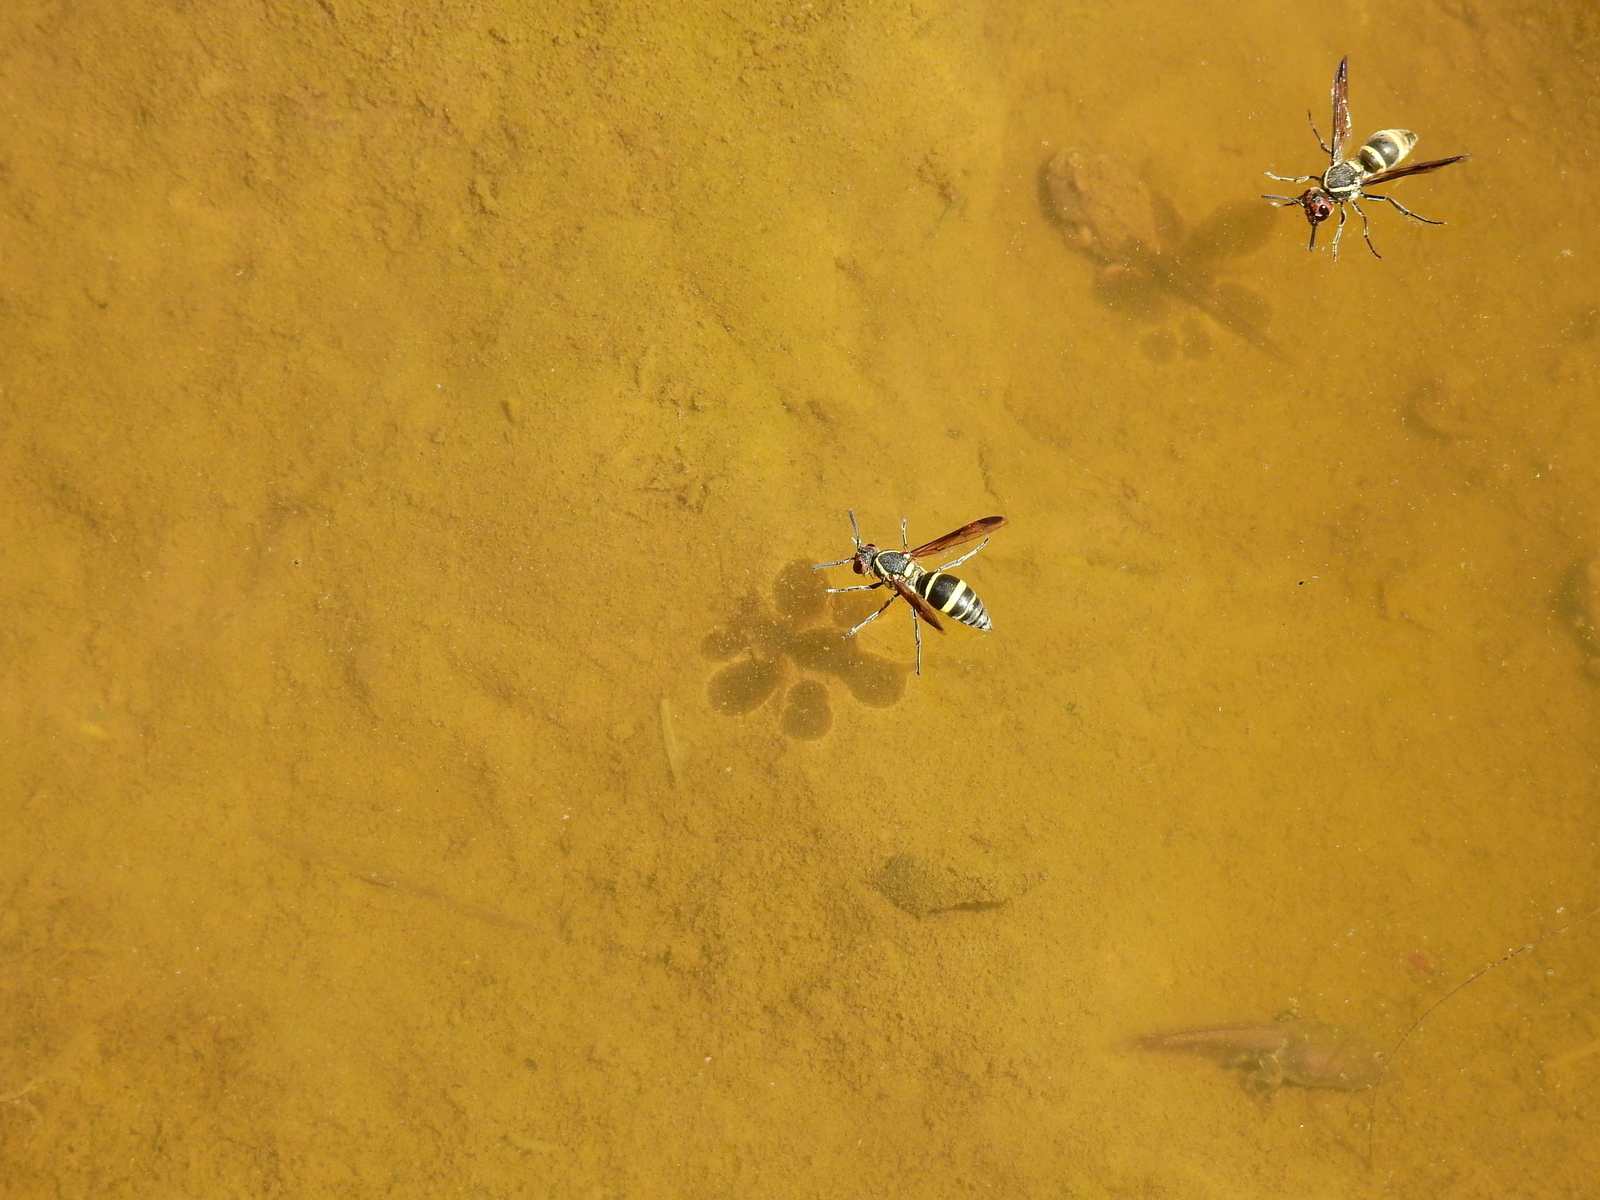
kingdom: Animalia
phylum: Arthropoda
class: Insecta
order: Hymenoptera
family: Eumenidae
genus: Ancistroceroides
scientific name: Ancistroceroides alastoroides
